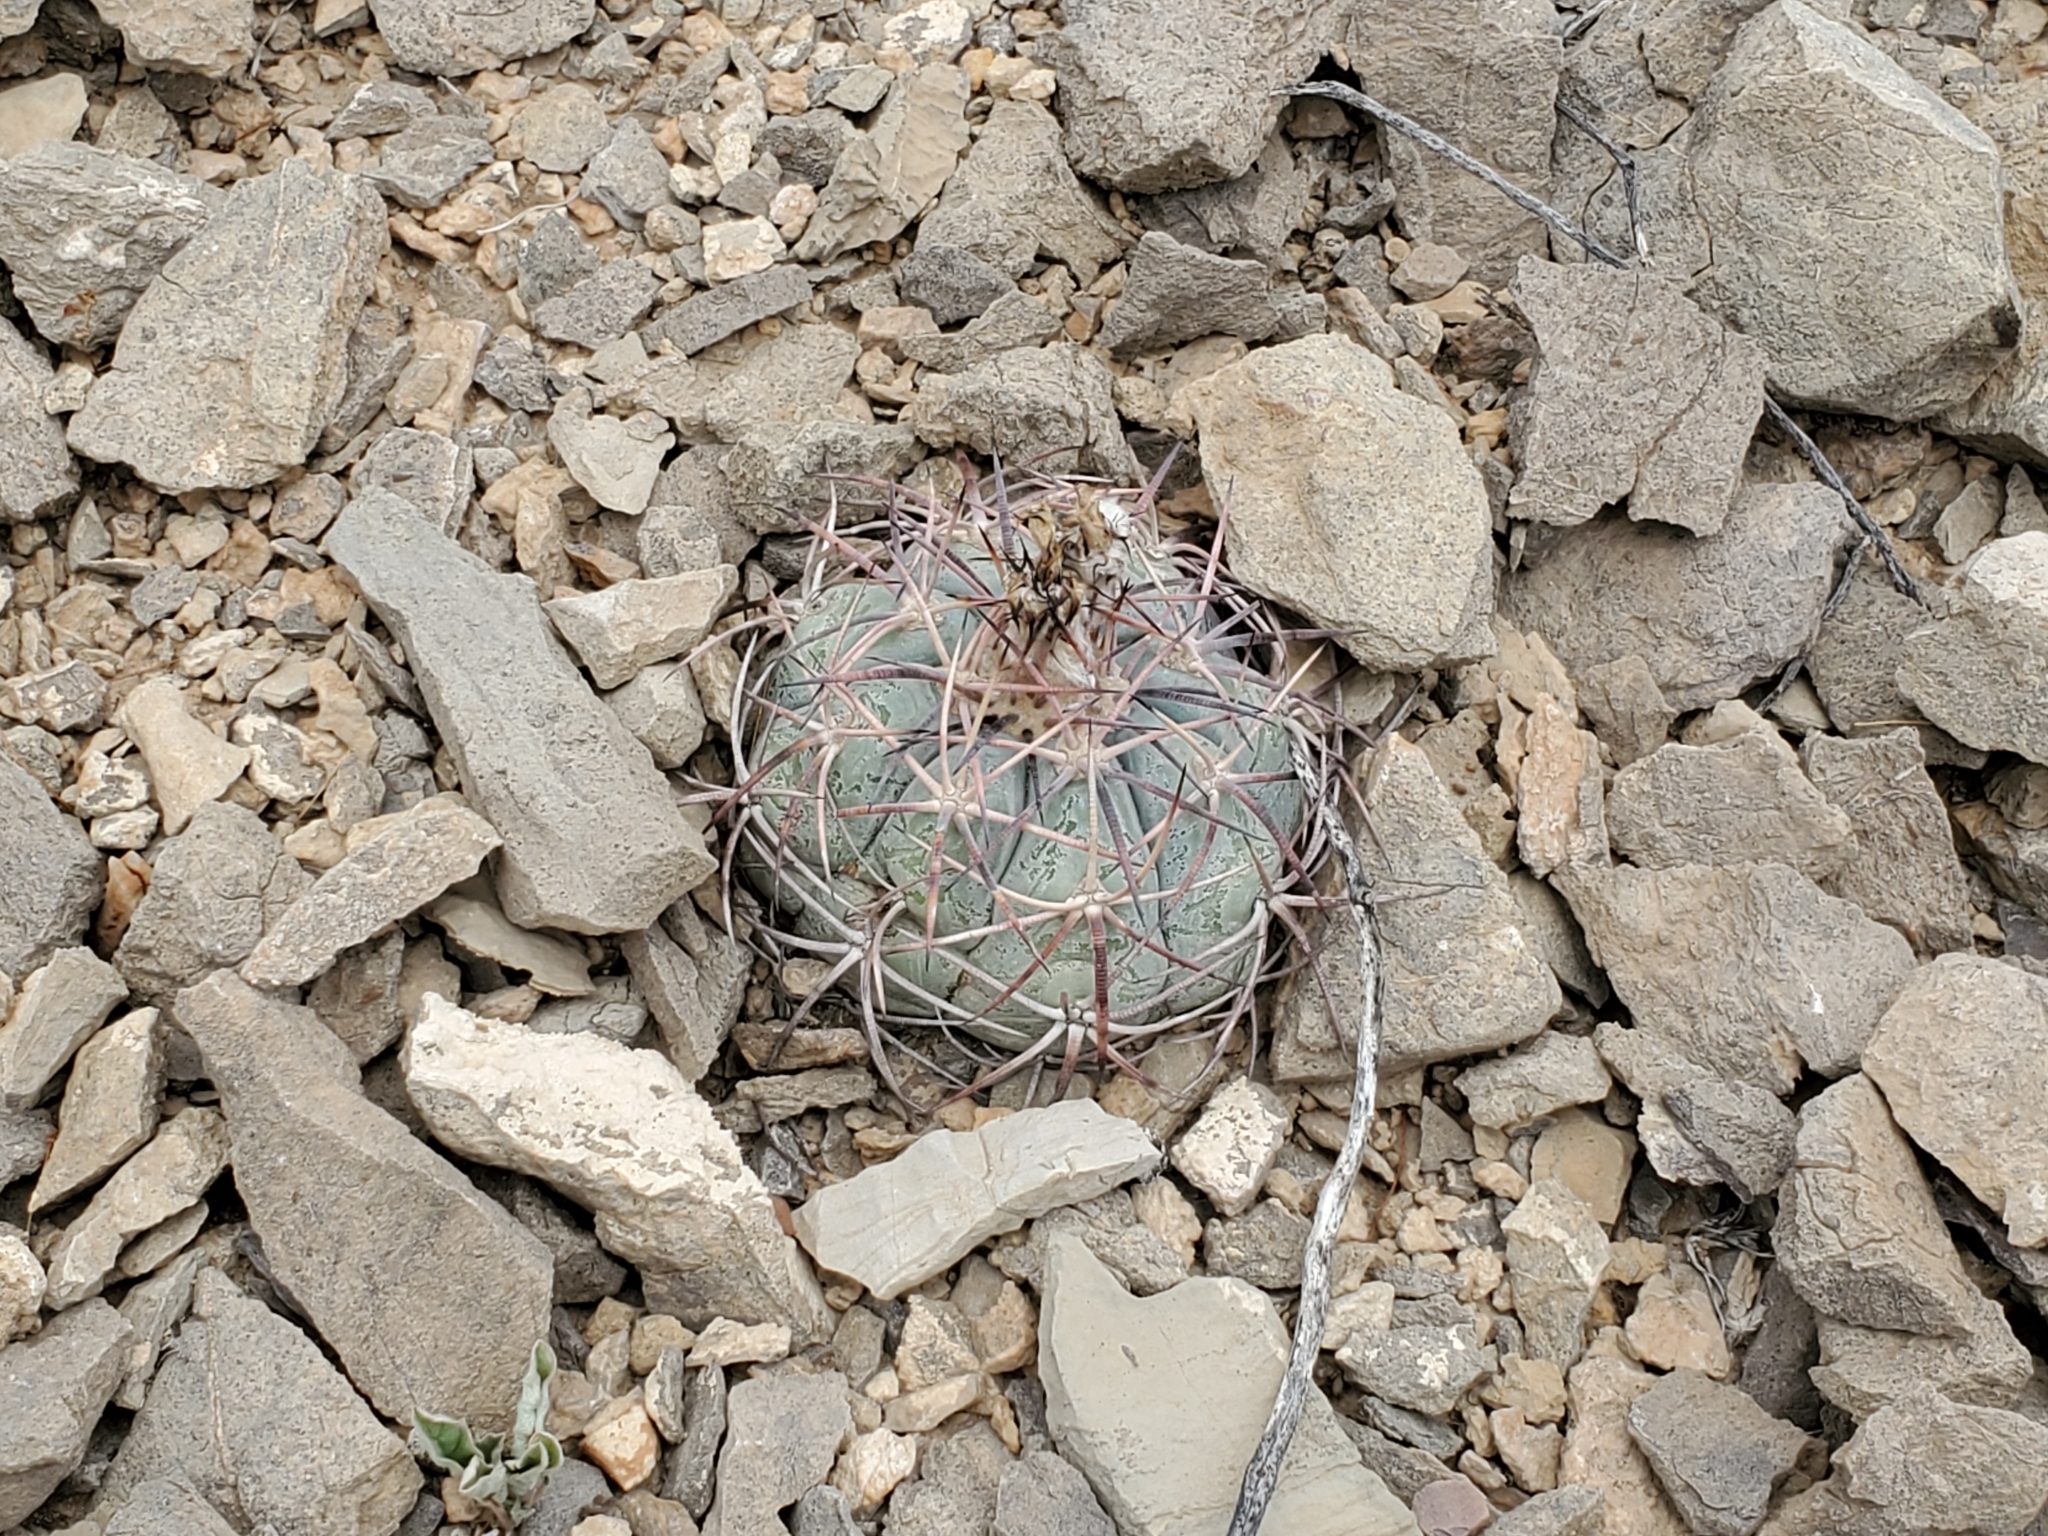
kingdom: Plantae
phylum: Tracheophyta
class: Magnoliopsida
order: Caryophyllales
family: Cactaceae
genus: Echinocactus
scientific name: Echinocactus horizonthalonius
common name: Devilshead
